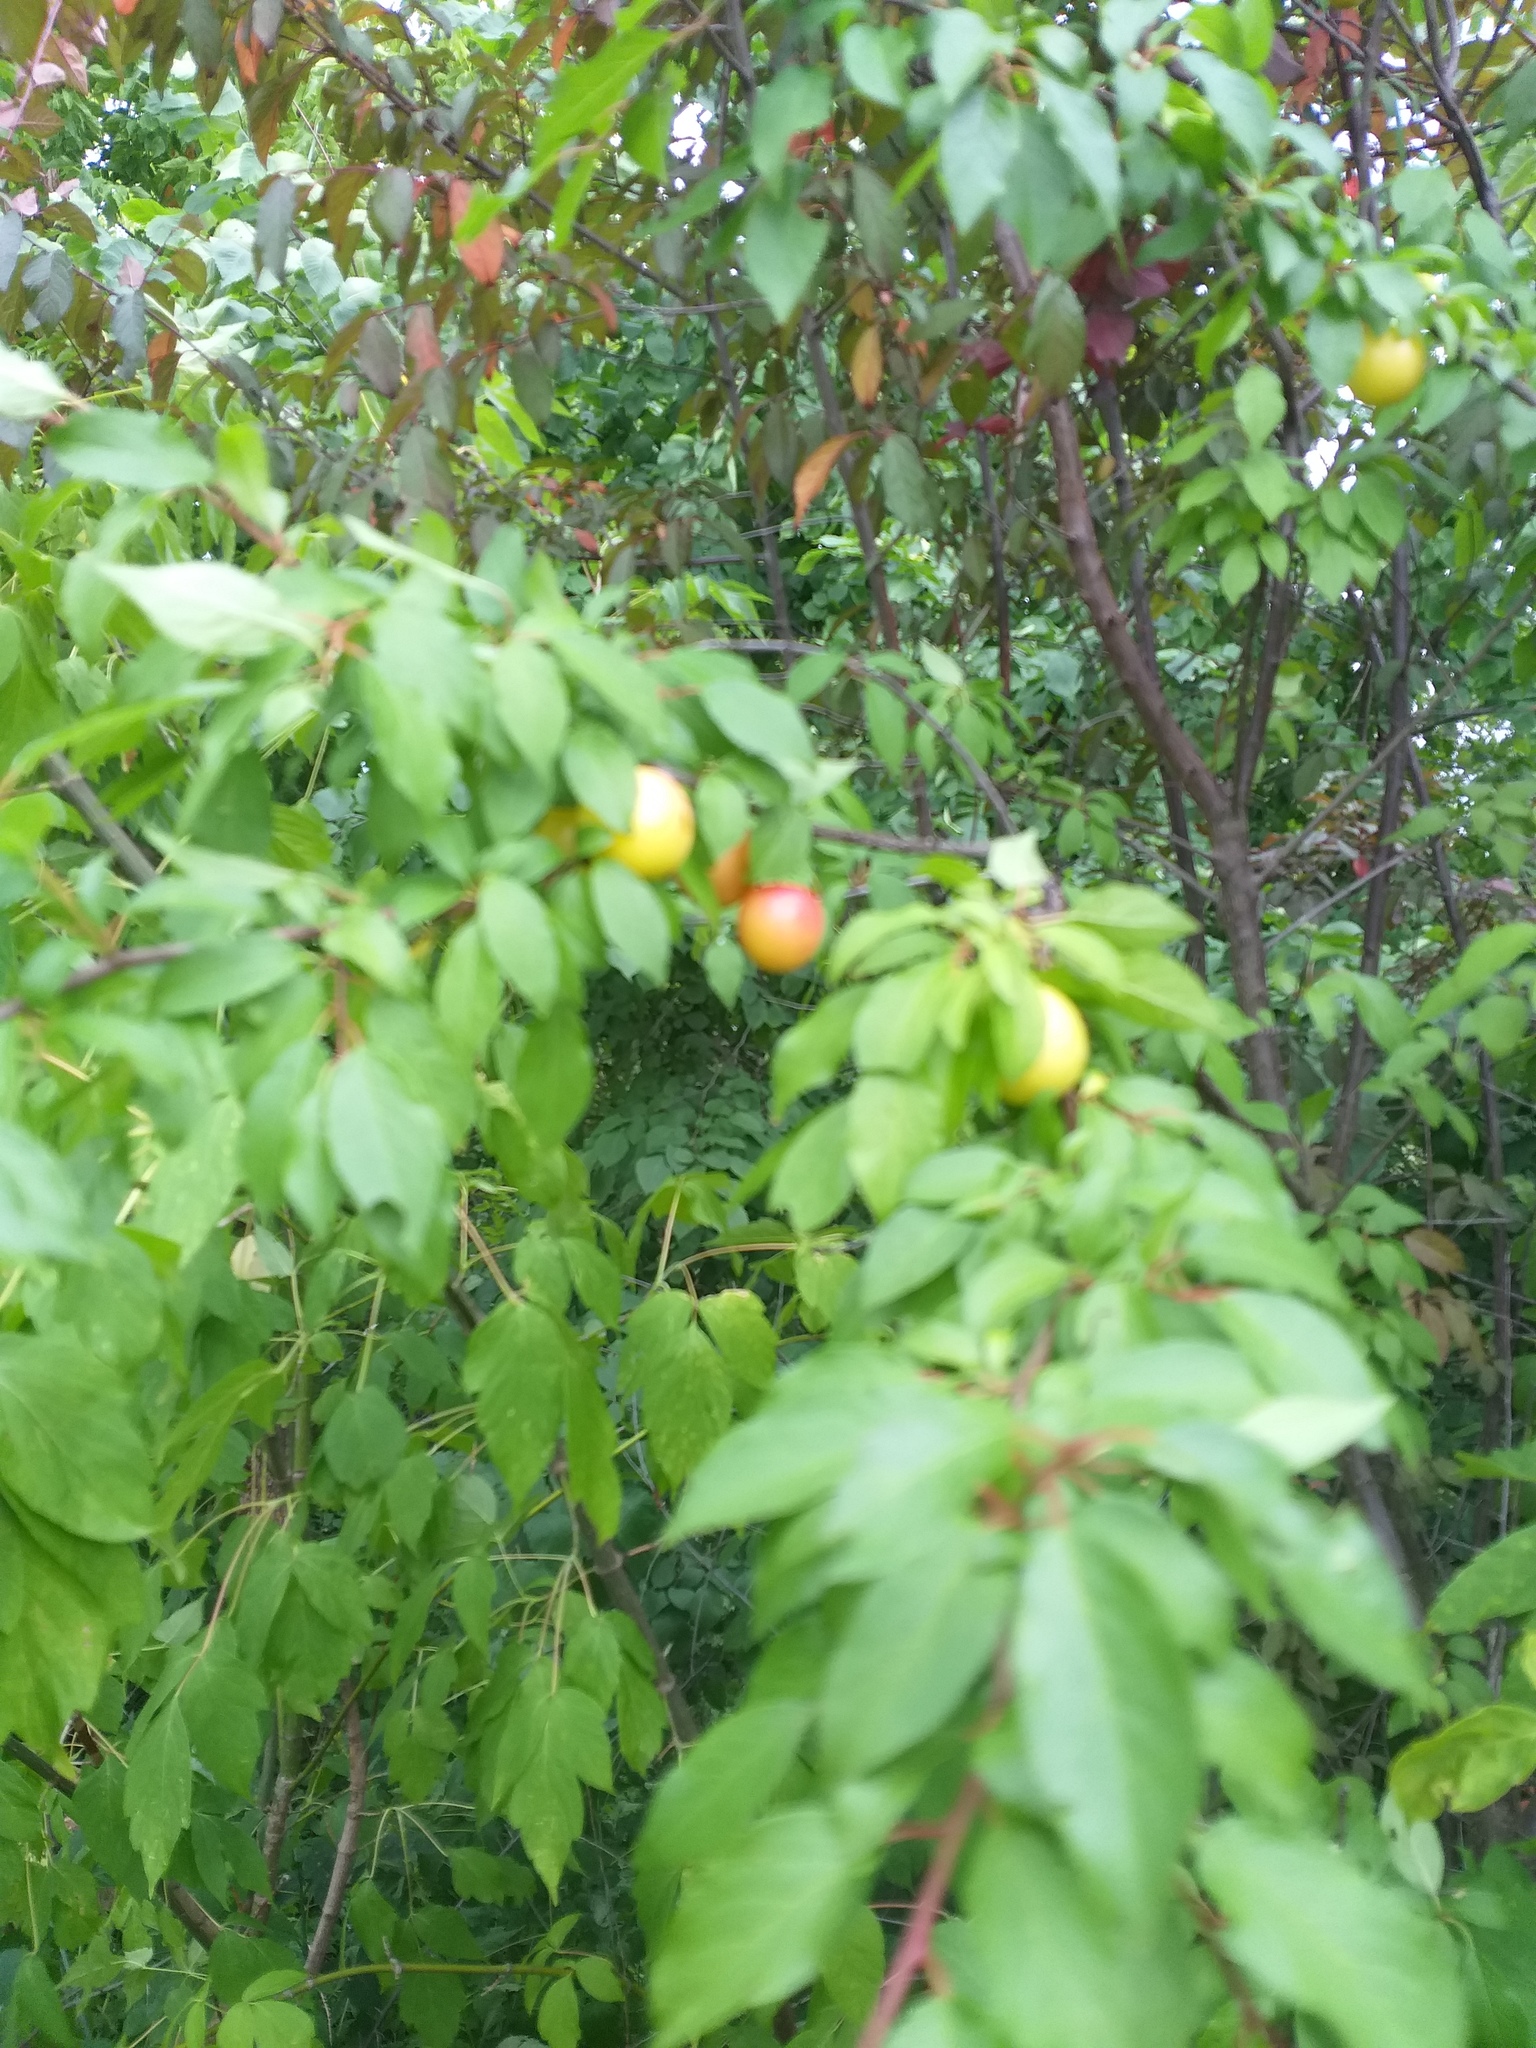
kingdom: Plantae
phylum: Tracheophyta
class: Magnoliopsida
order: Rosales
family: Rosaceae
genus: Prunus
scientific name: Prunus cerasifera
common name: Cherry plum
